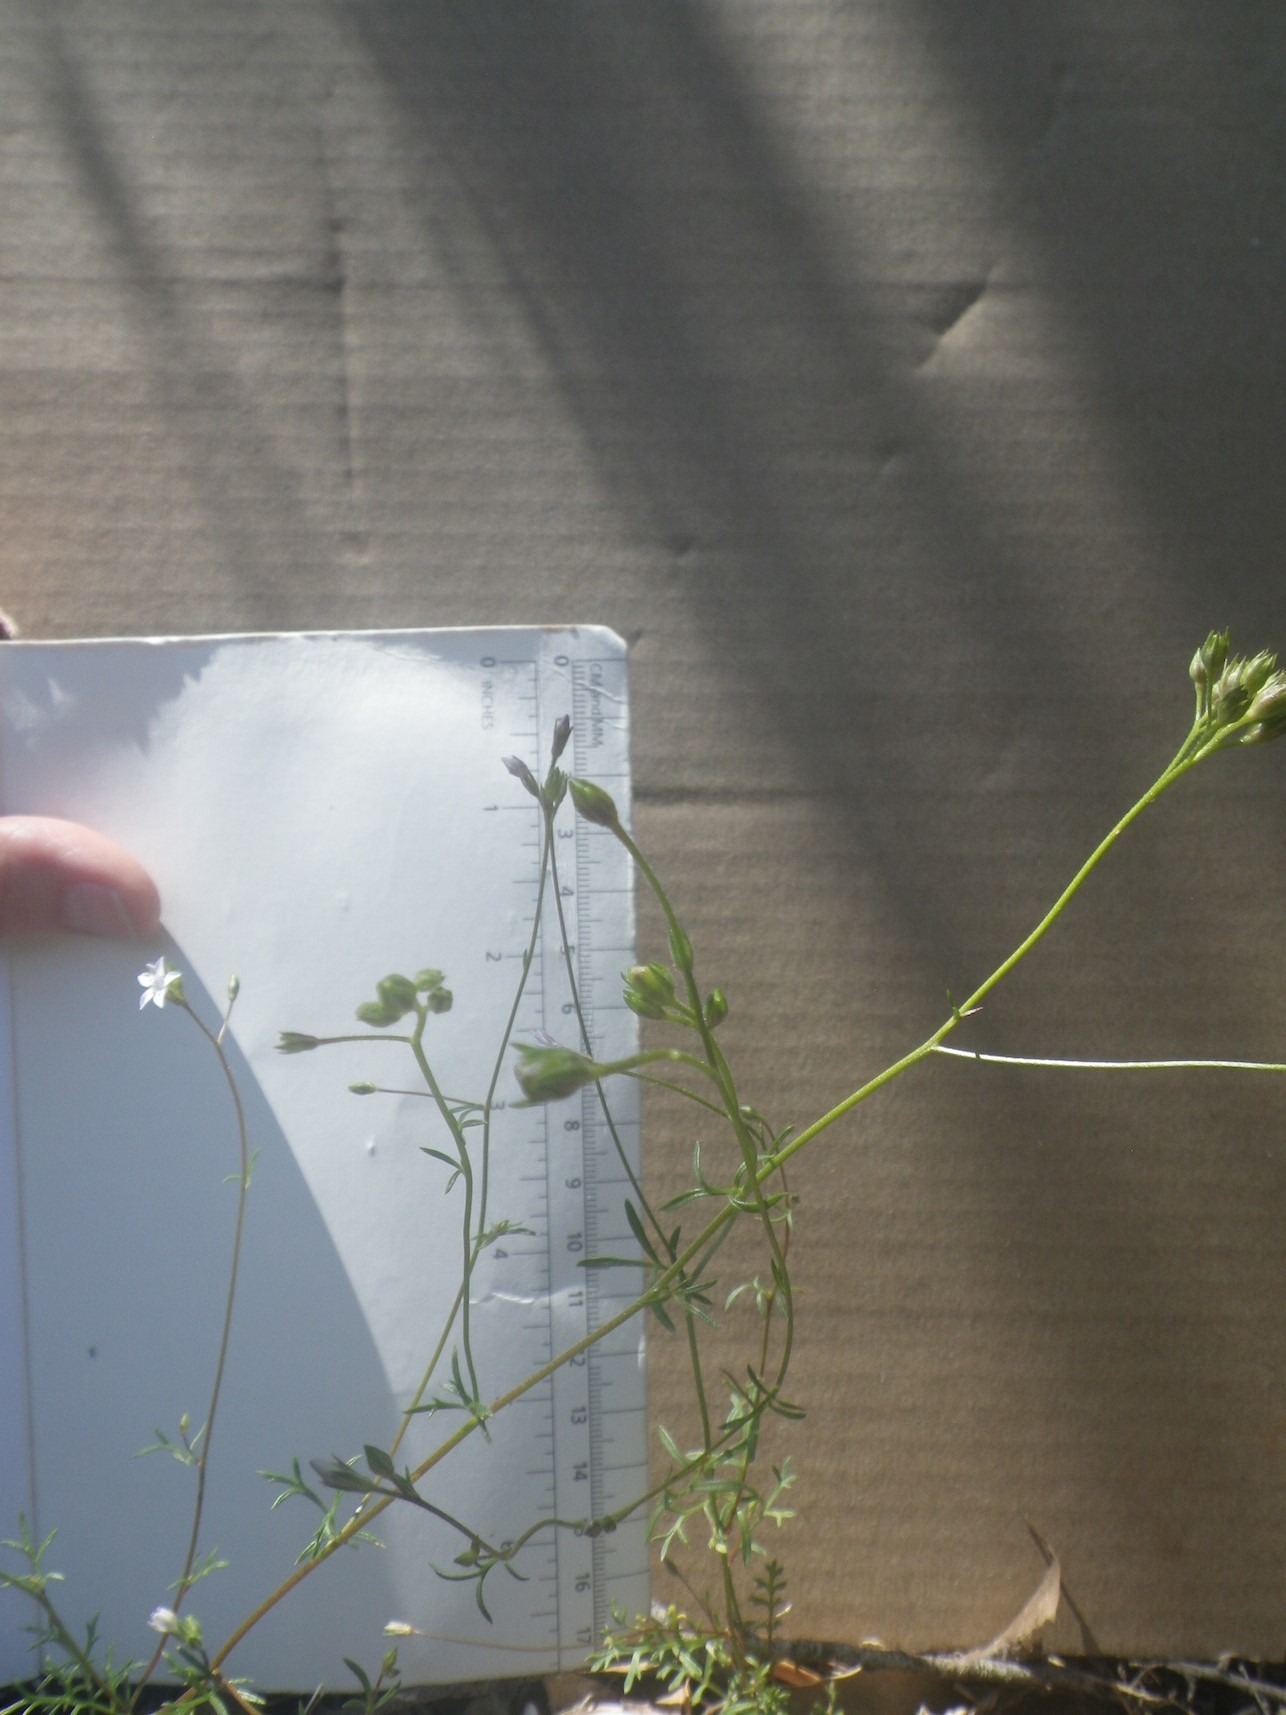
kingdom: Plantae
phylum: Tracheophyta
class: Magnoliopsida
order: Ericales
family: Polemoniaceae
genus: Gilia
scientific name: Gilia achilleifolia
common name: California gily-flower
